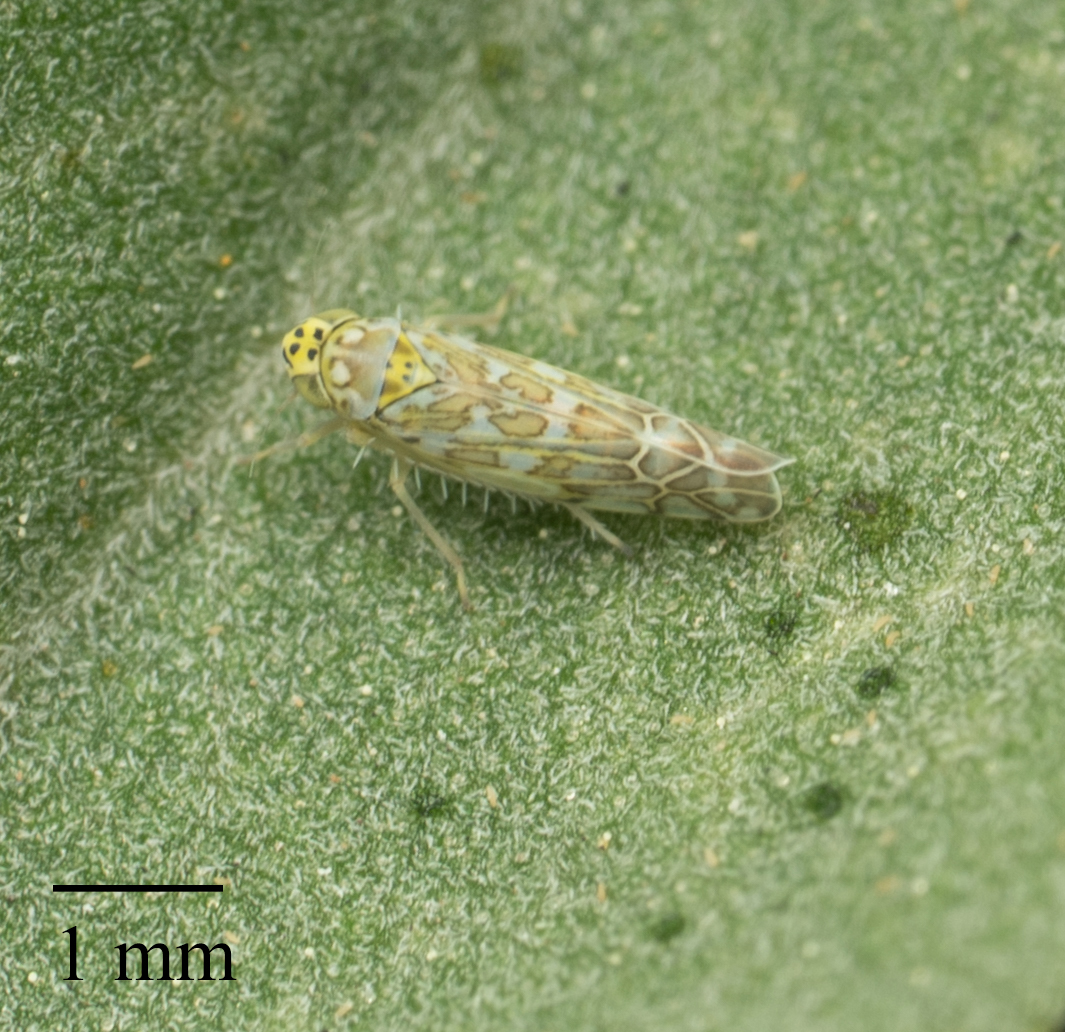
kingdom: Animalia
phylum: Arthropoda
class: Insecta
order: Hemiptera
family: Cicadellidae
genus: Eupteryx
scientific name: Eupteryx decemnotata
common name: Ligurian leafhopper
